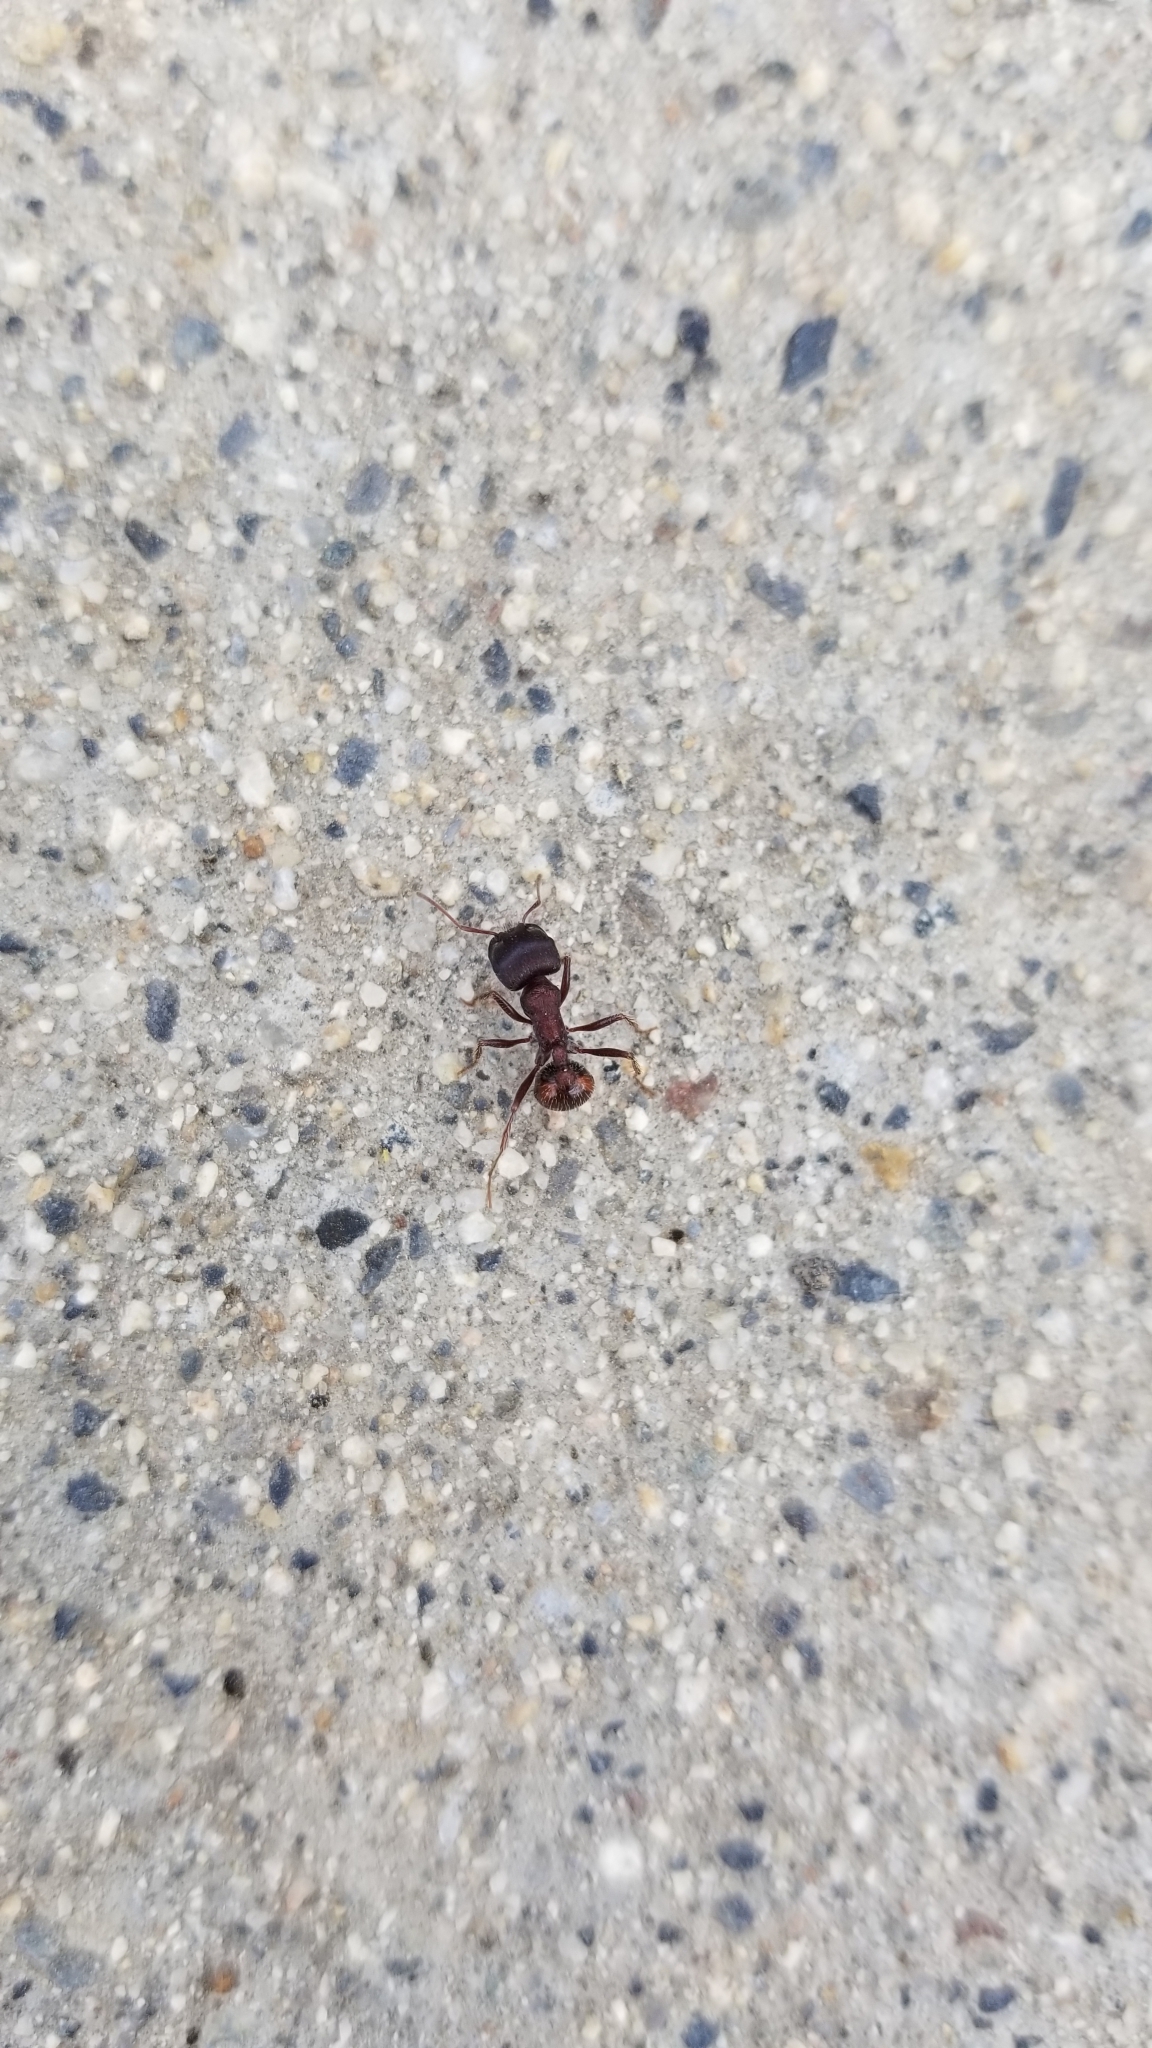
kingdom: Animalia
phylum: Arthropoda
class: Insecta
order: Hymenoptera
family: Formicidae
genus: Pogonomyrmex
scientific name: Pogonomyrmex rugosus
